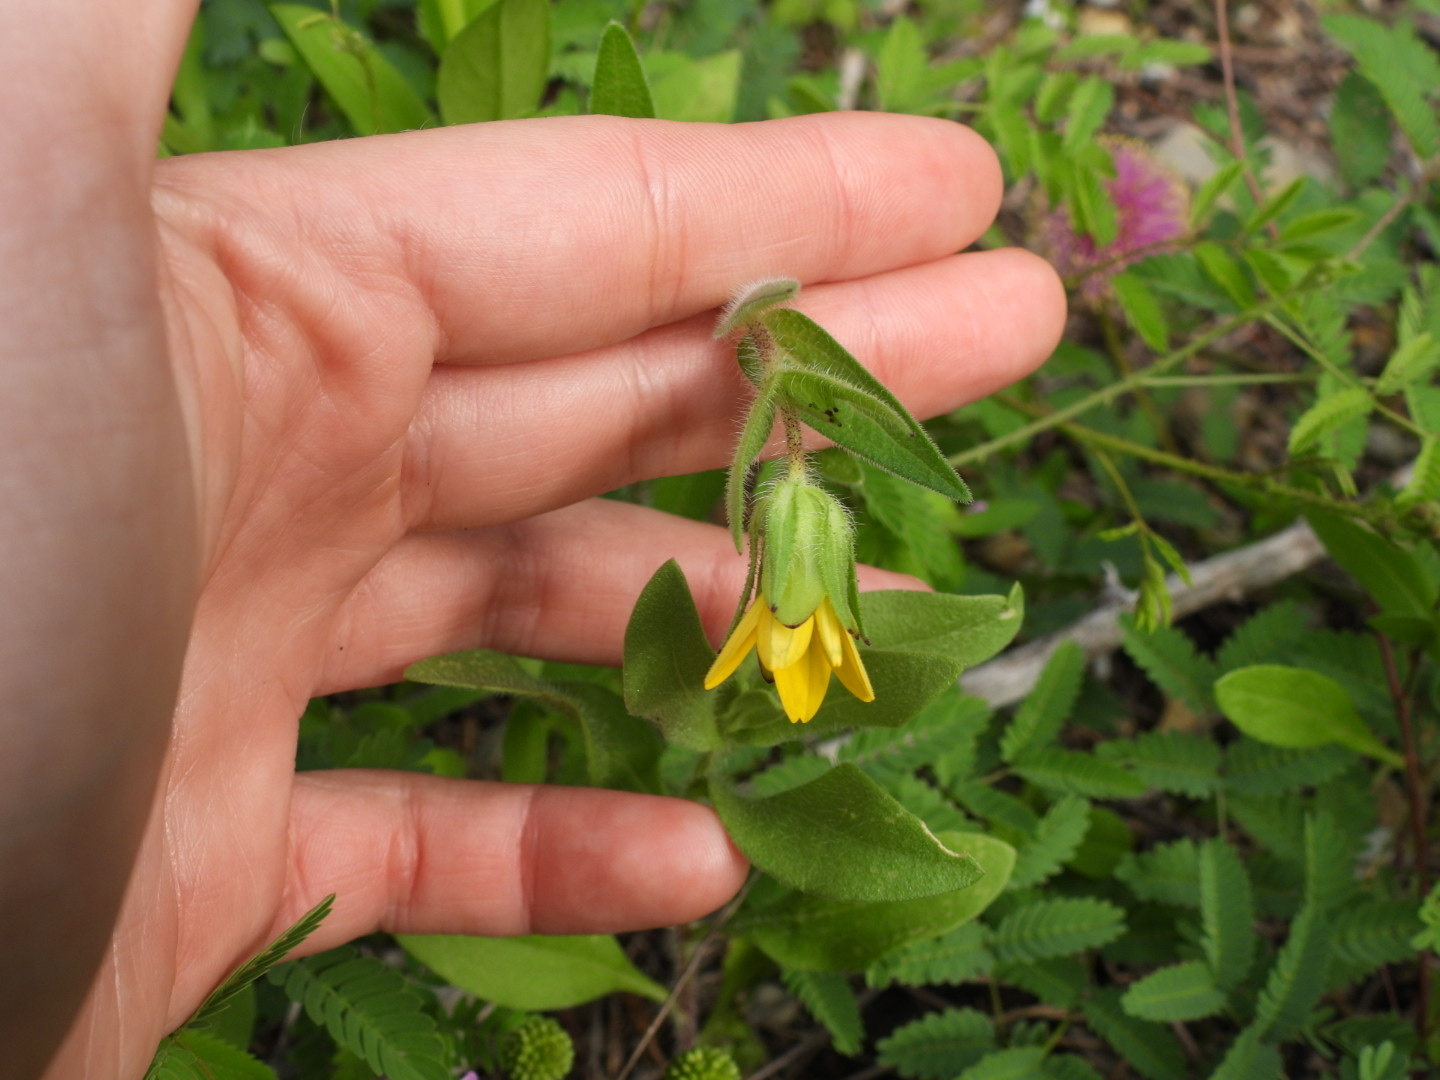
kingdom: Plantae
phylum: Tracheophyta
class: Magnoliopsida
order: Asterales
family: Asteraceae
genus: Lindheimera
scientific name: Lindheimera texana
